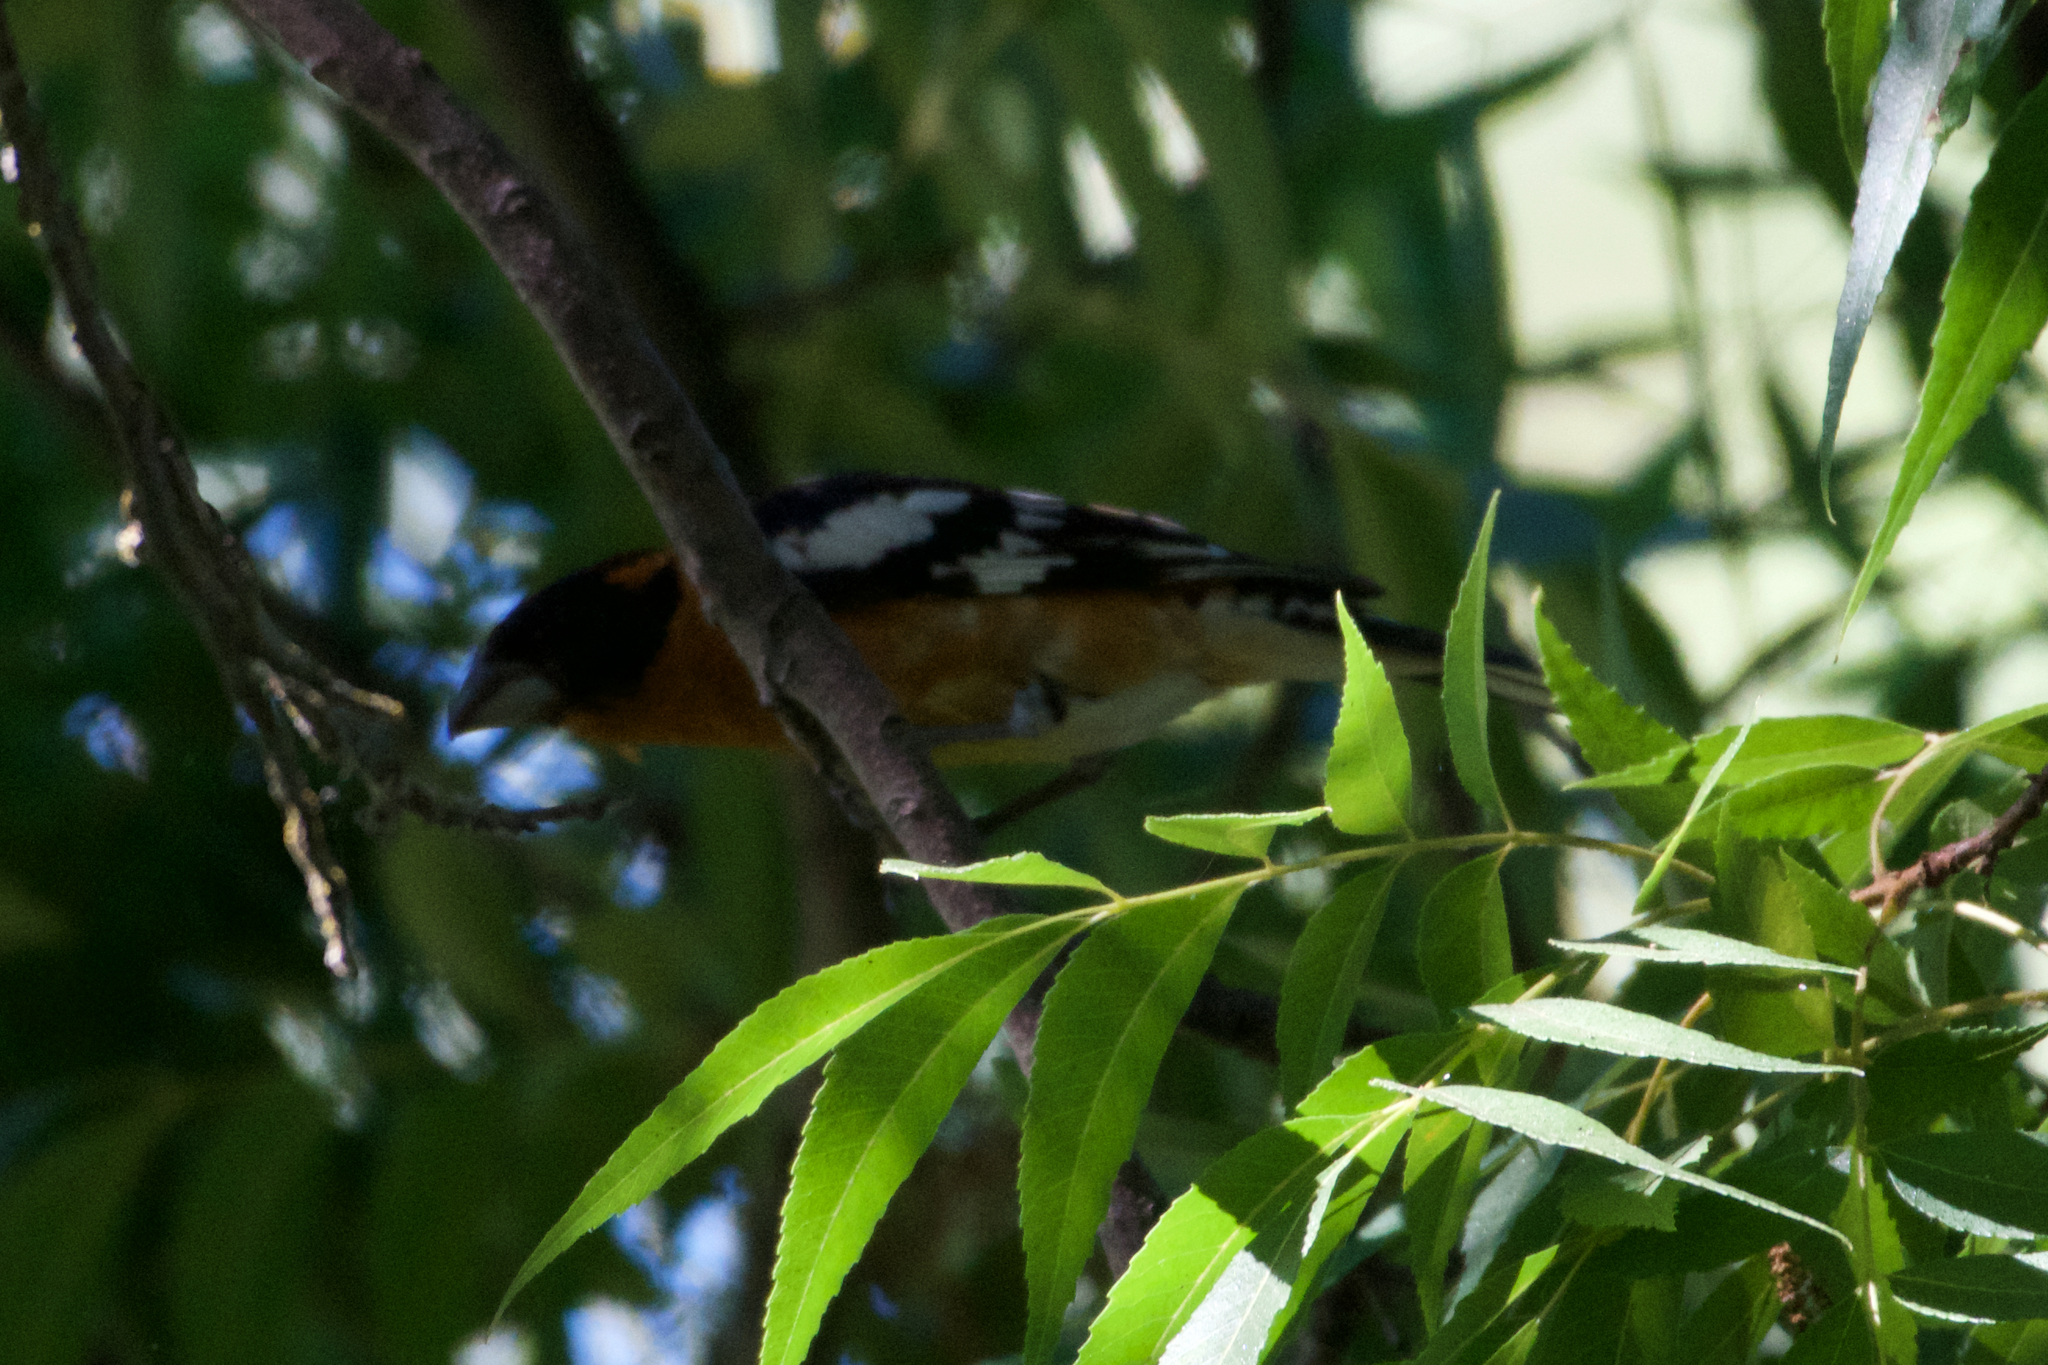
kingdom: Animalia
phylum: Chordata
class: Aves
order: Passeriformes
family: Cardinalidae
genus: Pheucticus
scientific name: Pheucticus melanocephalus
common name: Black-headed grosbeak
